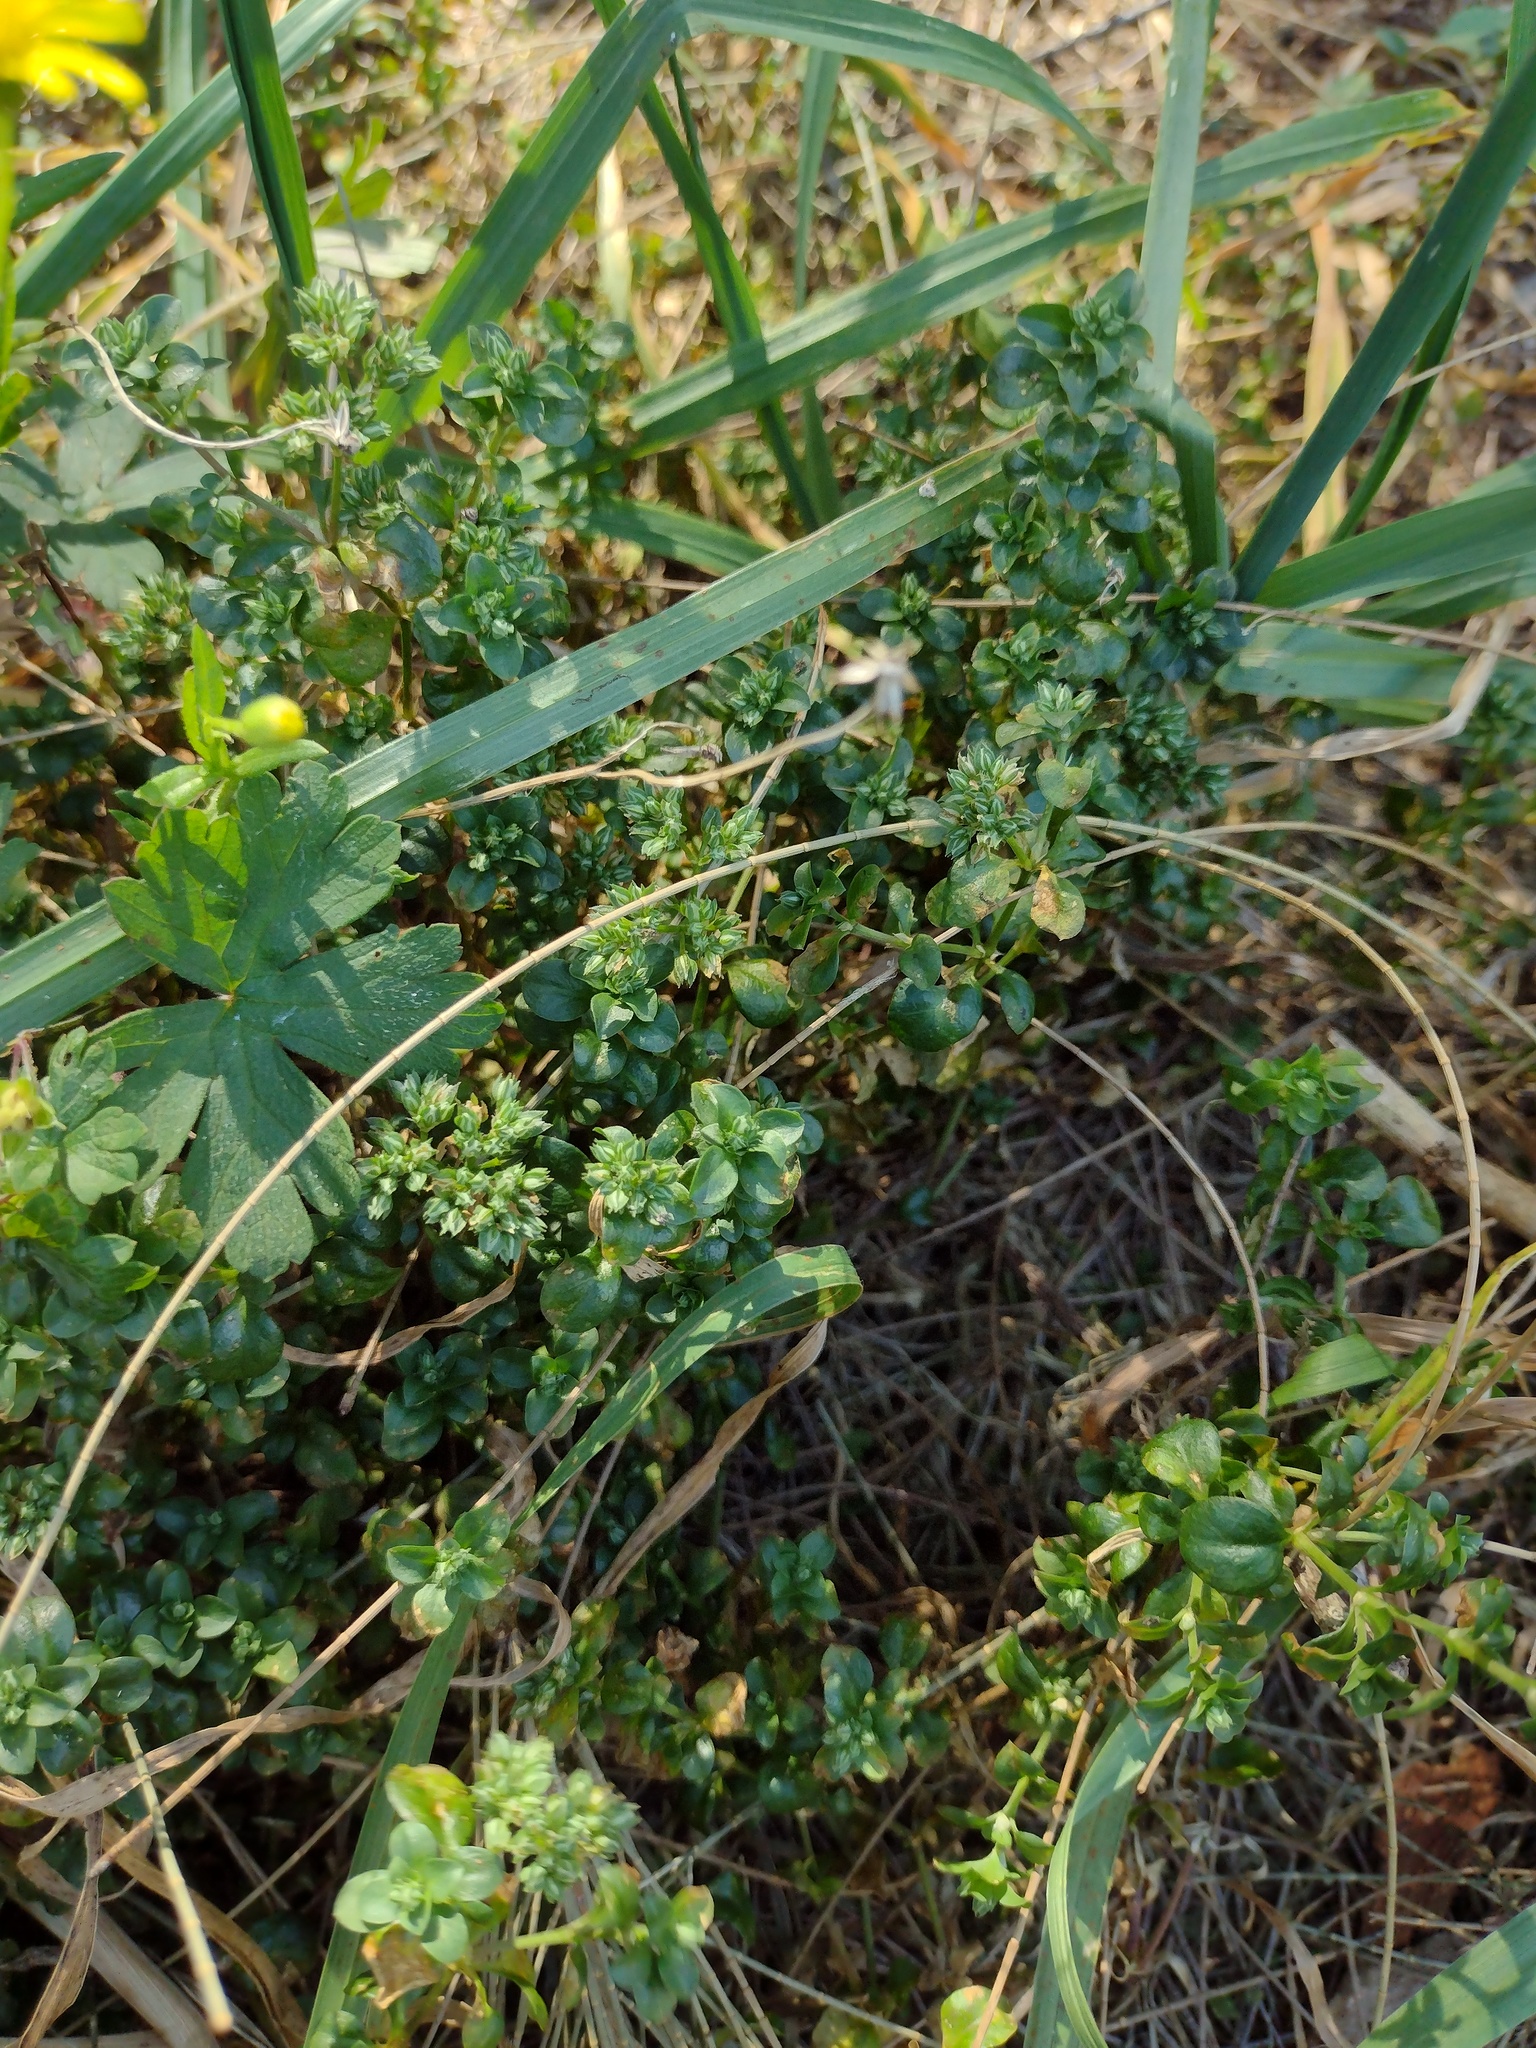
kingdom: Plantae
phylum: Tracheophyta
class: Magnoliopsida
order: Caryophyllales
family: Caryophyllaceae
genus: Polycarpon
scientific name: Polycarpon tetraphyllum
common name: Four-leaved all-seed
